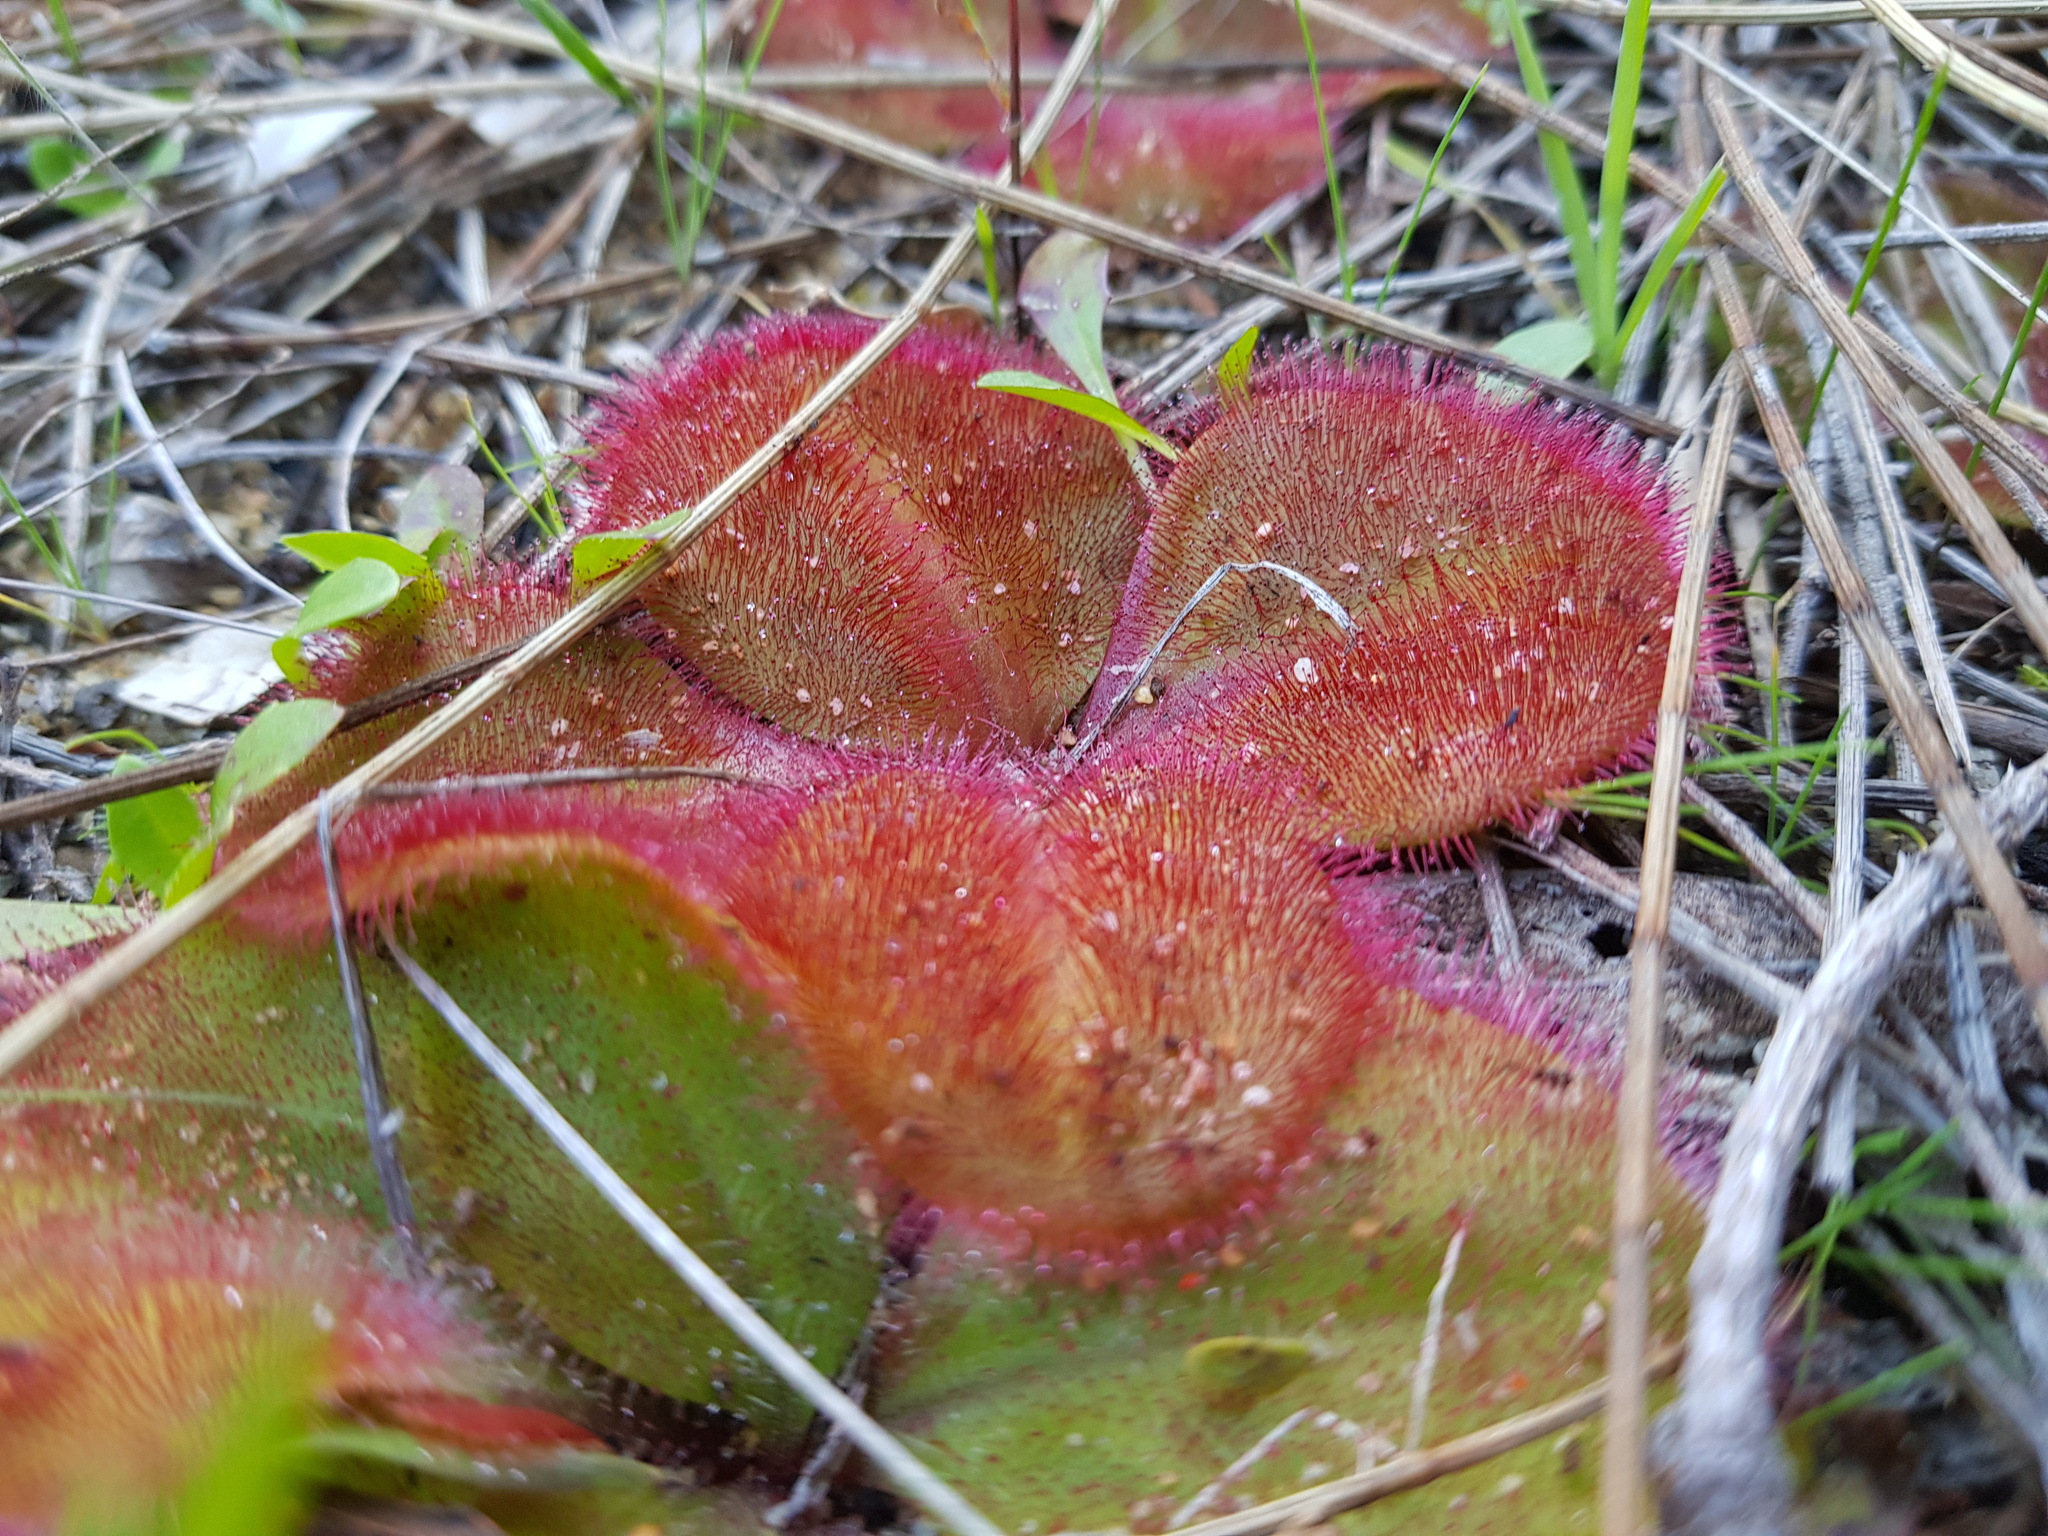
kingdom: Plantae
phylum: Tracheophyta
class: Magnoliopsida
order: Caryophyllales
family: Droseraceae
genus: Drosera
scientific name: Drosera erythrorhiza
